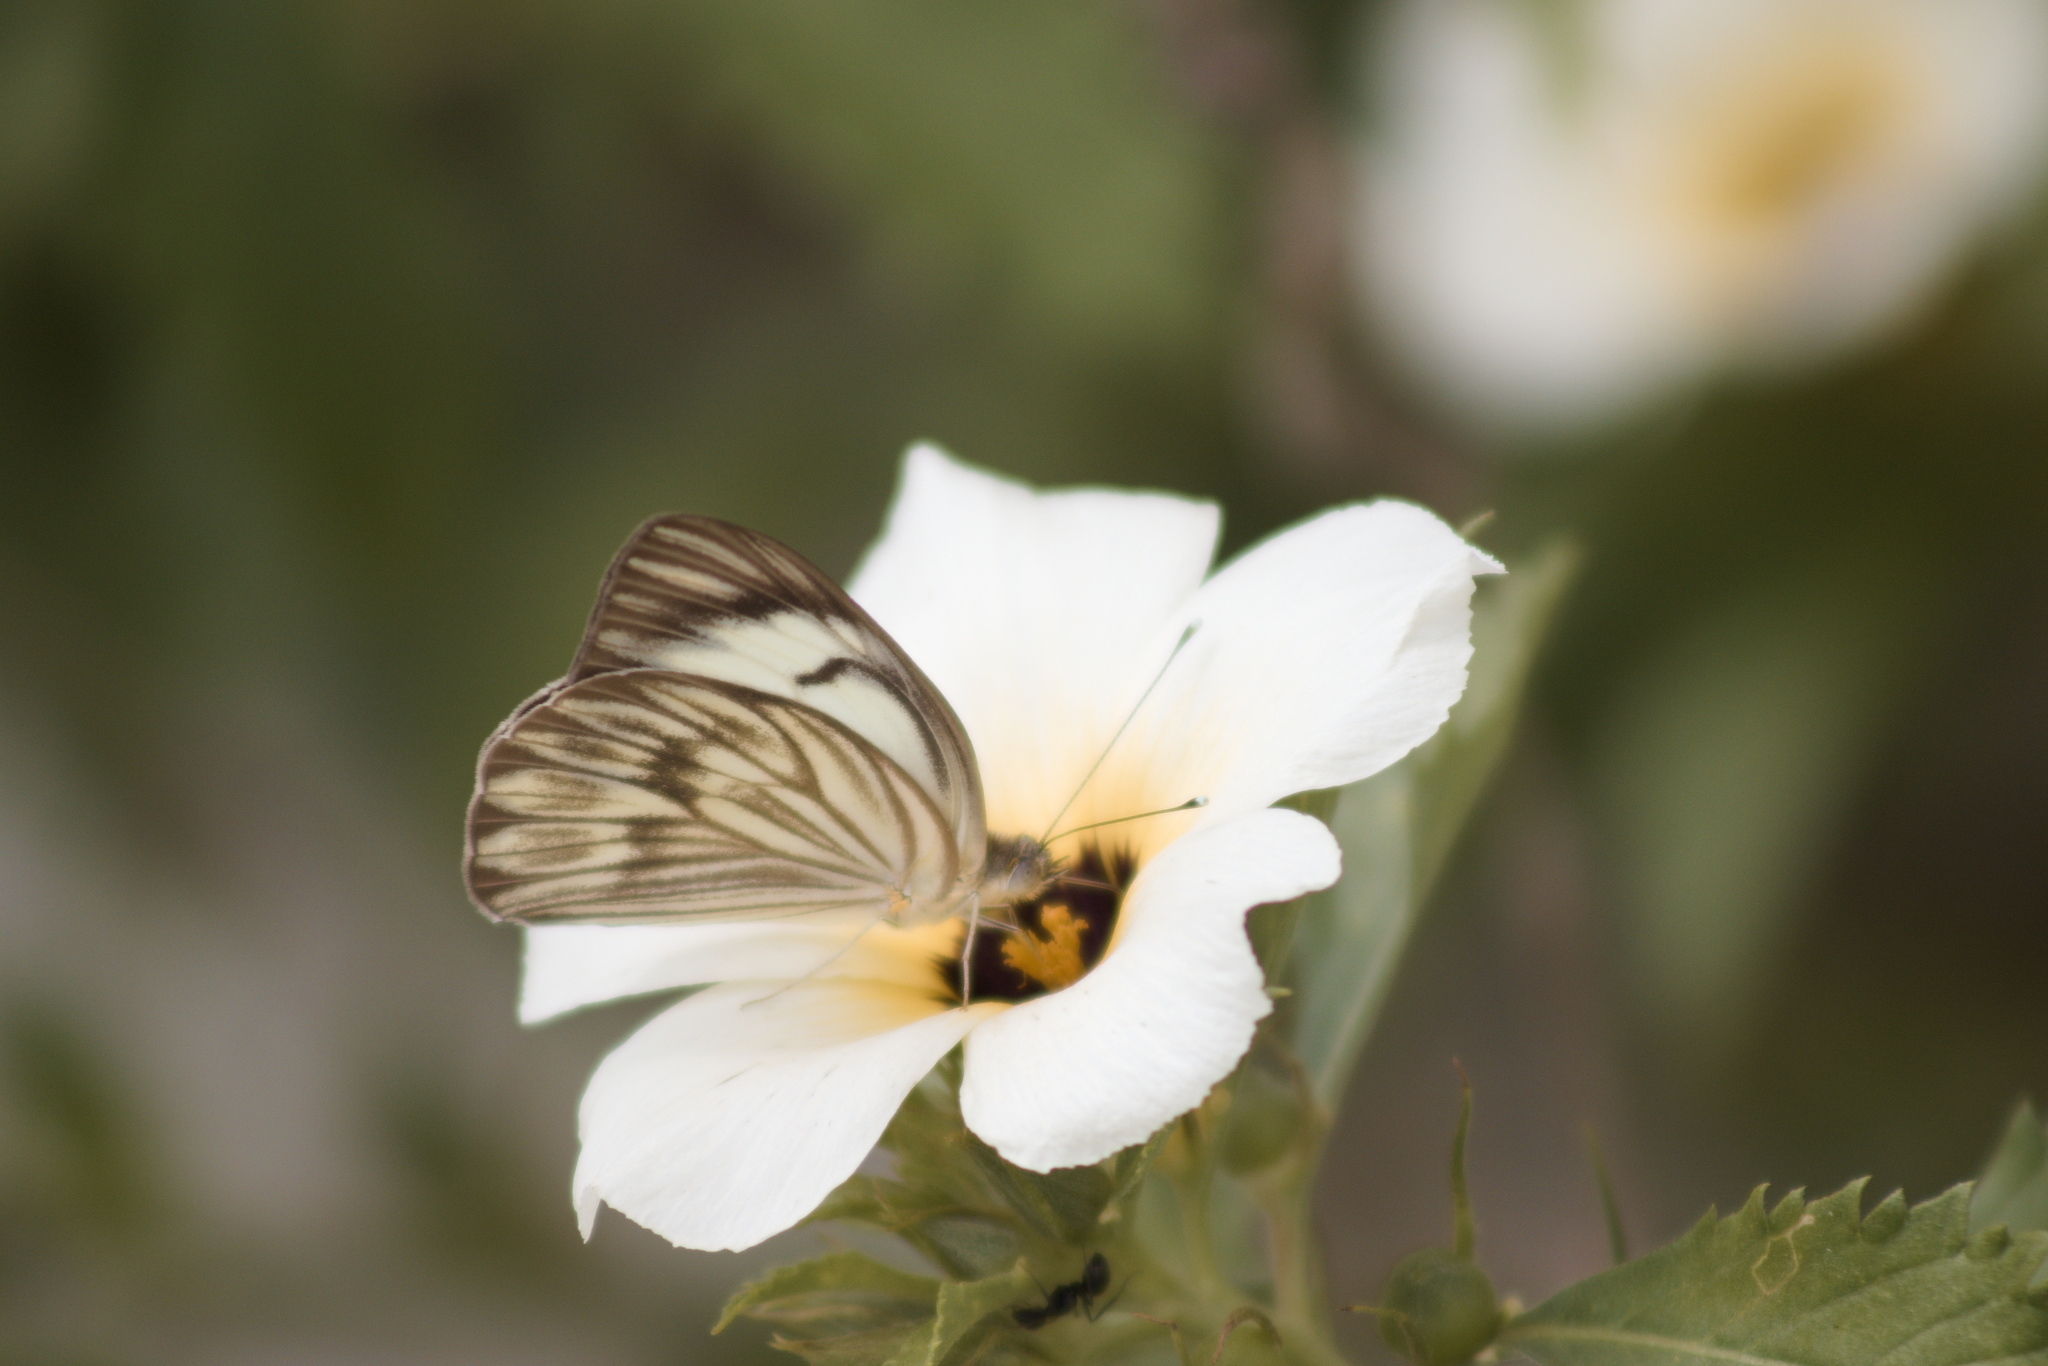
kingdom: Animalia
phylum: Arthropoda
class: Insecta
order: Lepidoptera
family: Pieridae
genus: Ascia
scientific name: Ascia monuste
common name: Great southern white
